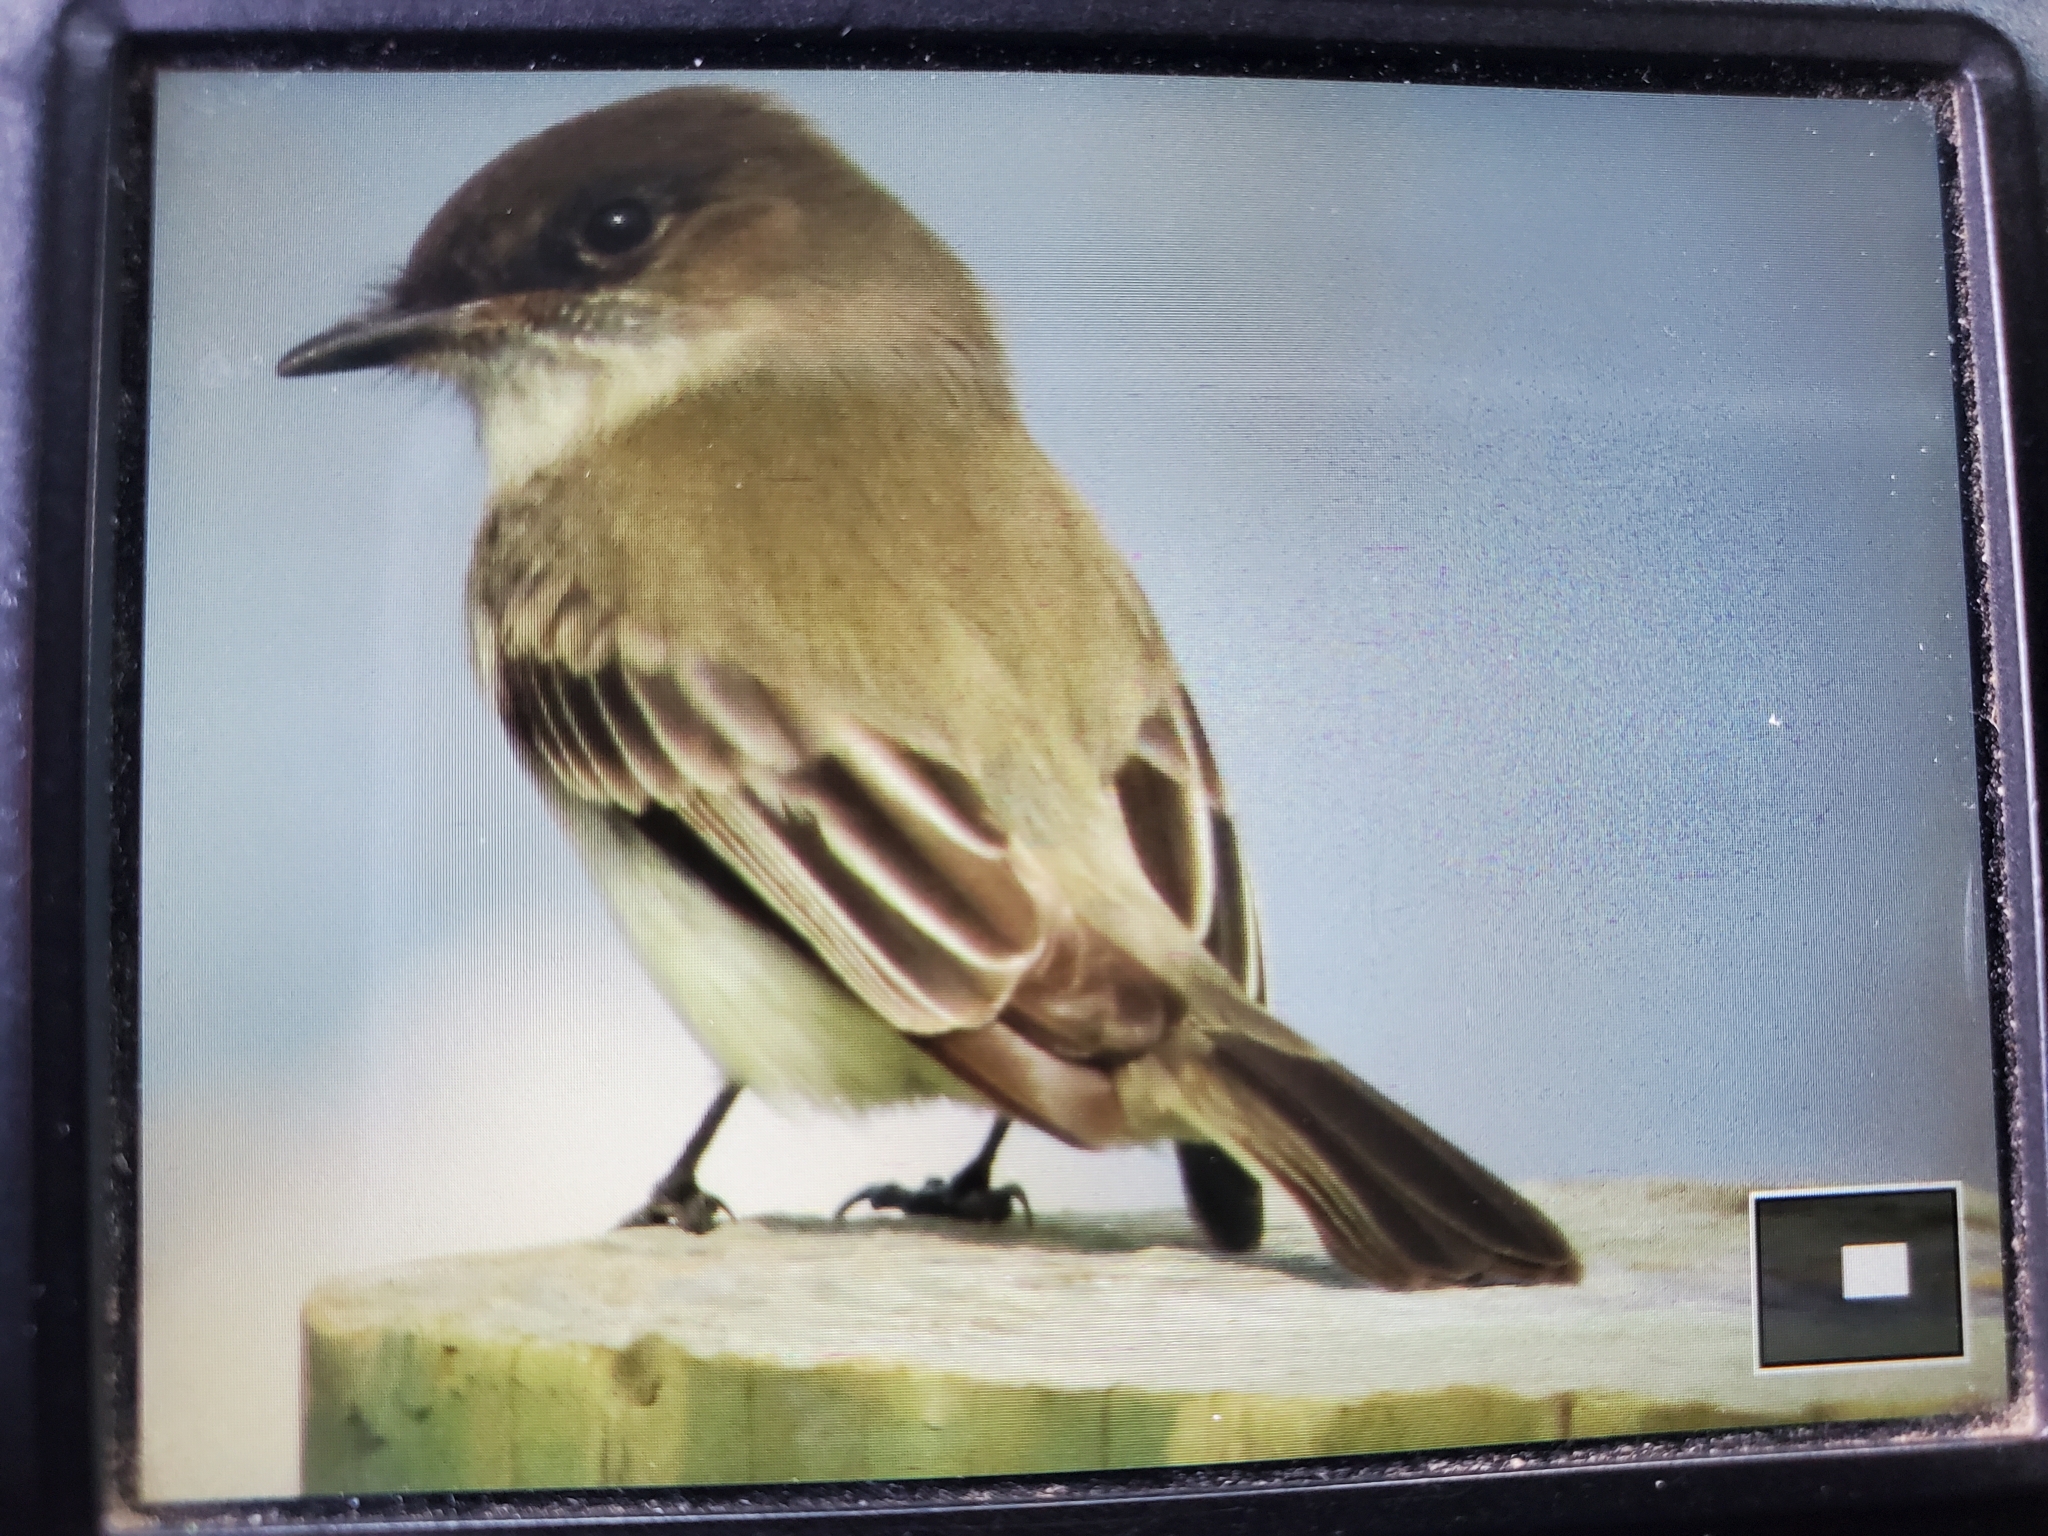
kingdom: Animalia
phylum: Chordata
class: Aves
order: Passeriformes
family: Tyrannidae
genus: Sayornis
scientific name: Sayornis phoebe
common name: Eastern phoebe
